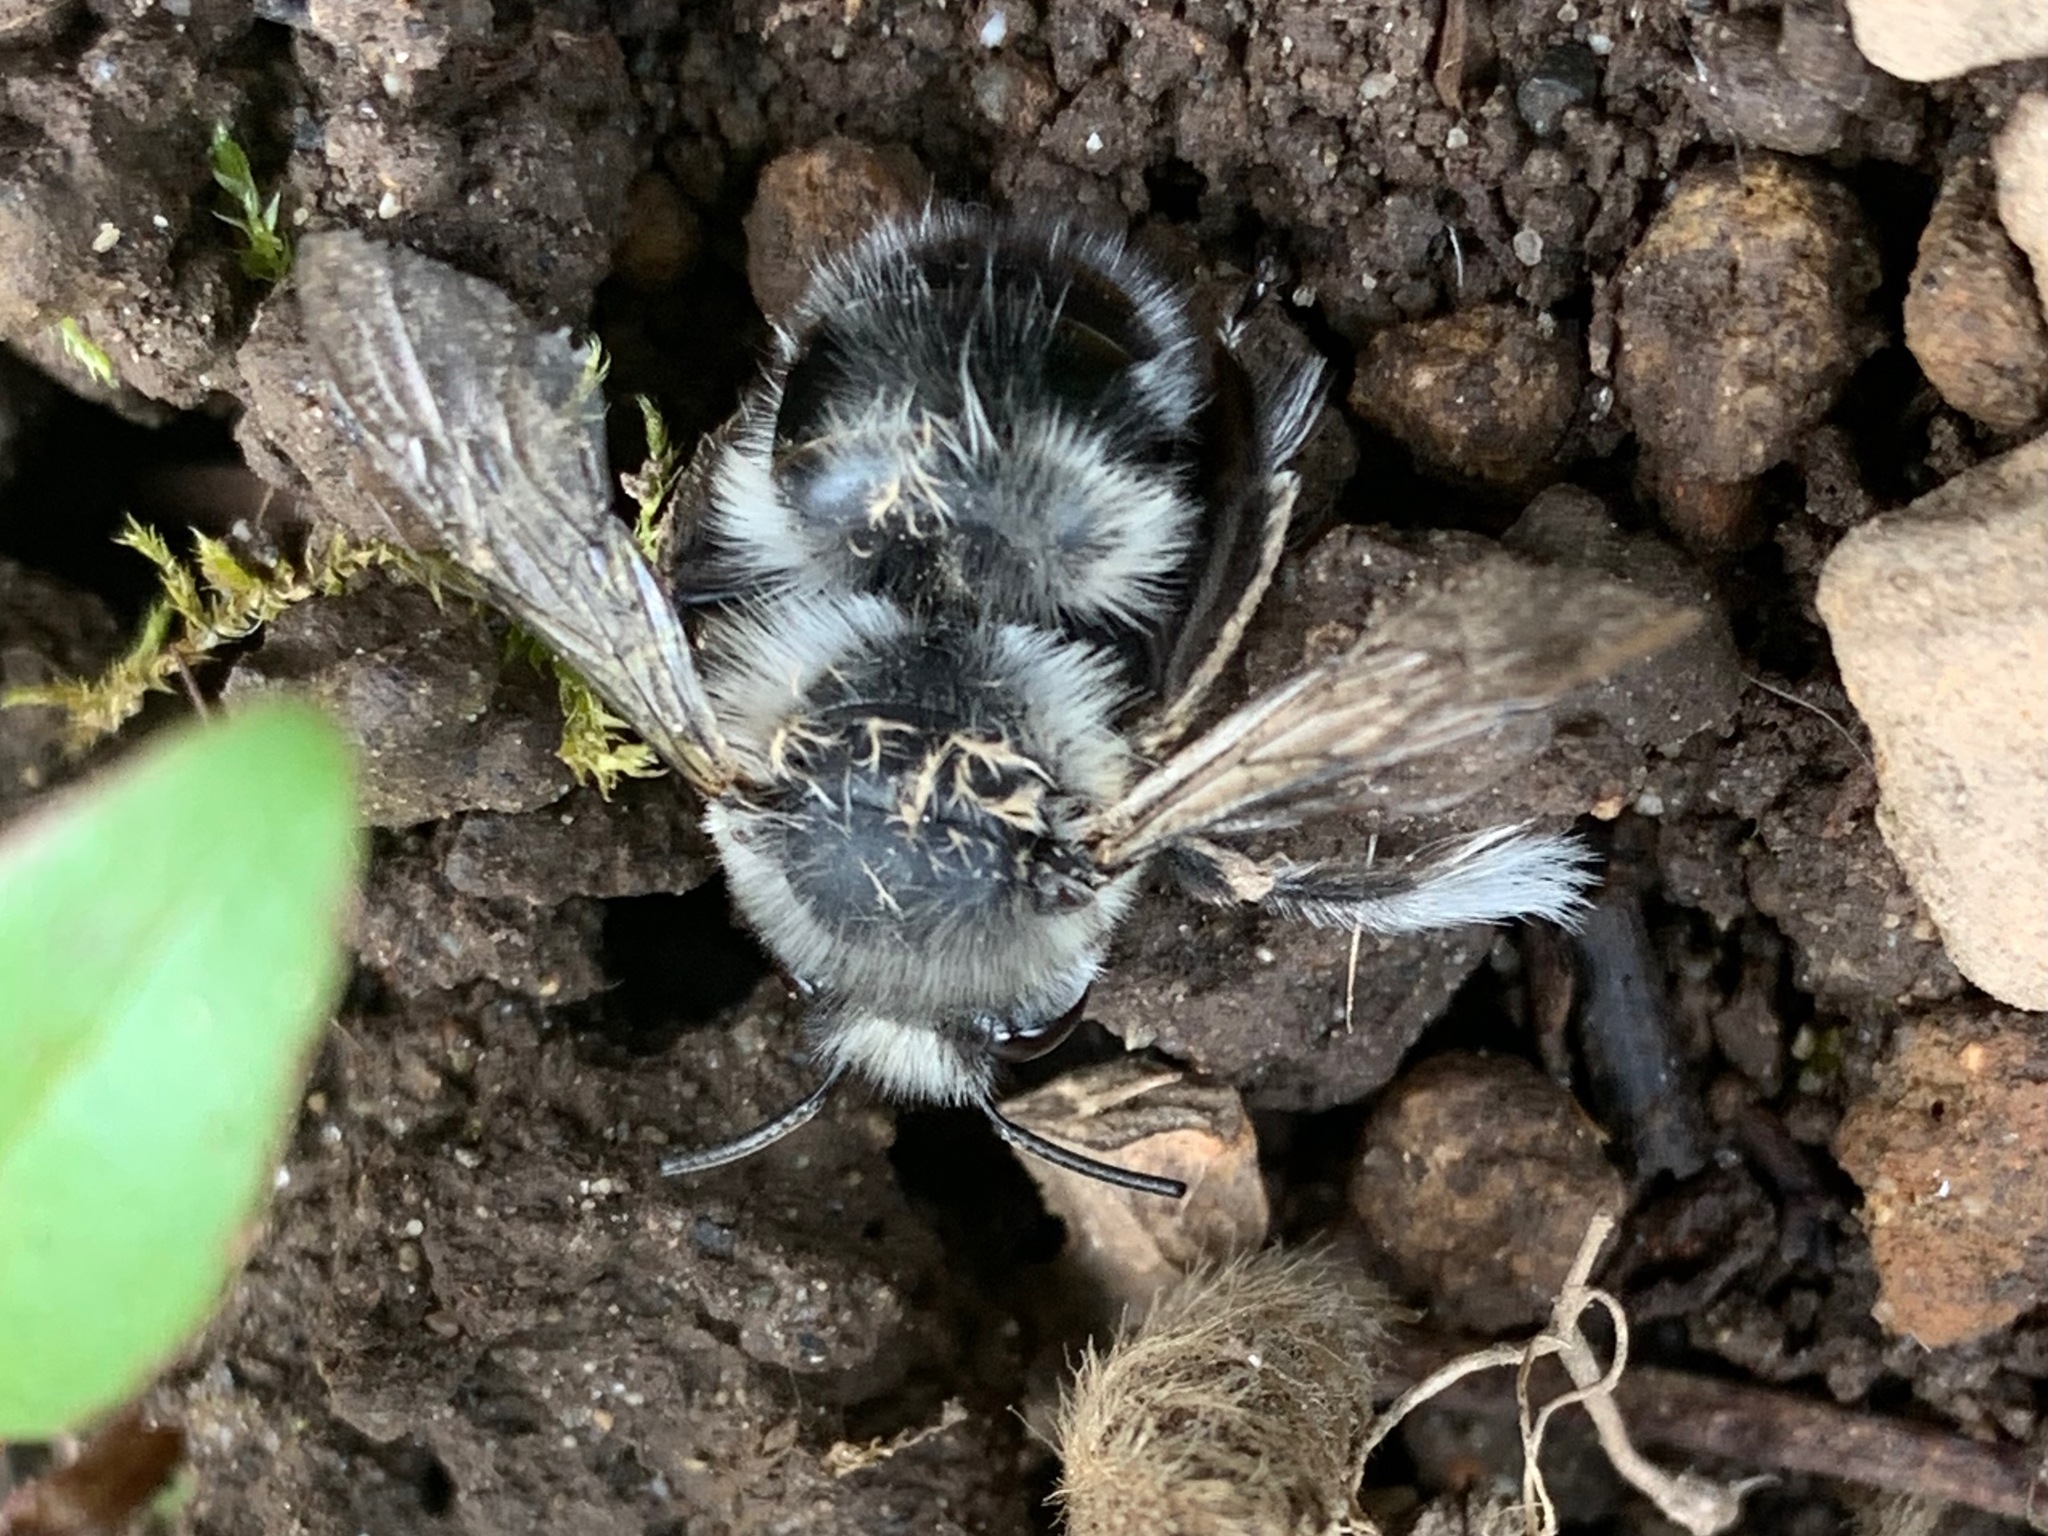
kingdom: Animalia
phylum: Arthropoda
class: Insecta
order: Hymenoptera
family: Apidae
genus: Anthophora
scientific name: Anthophora pacifica
